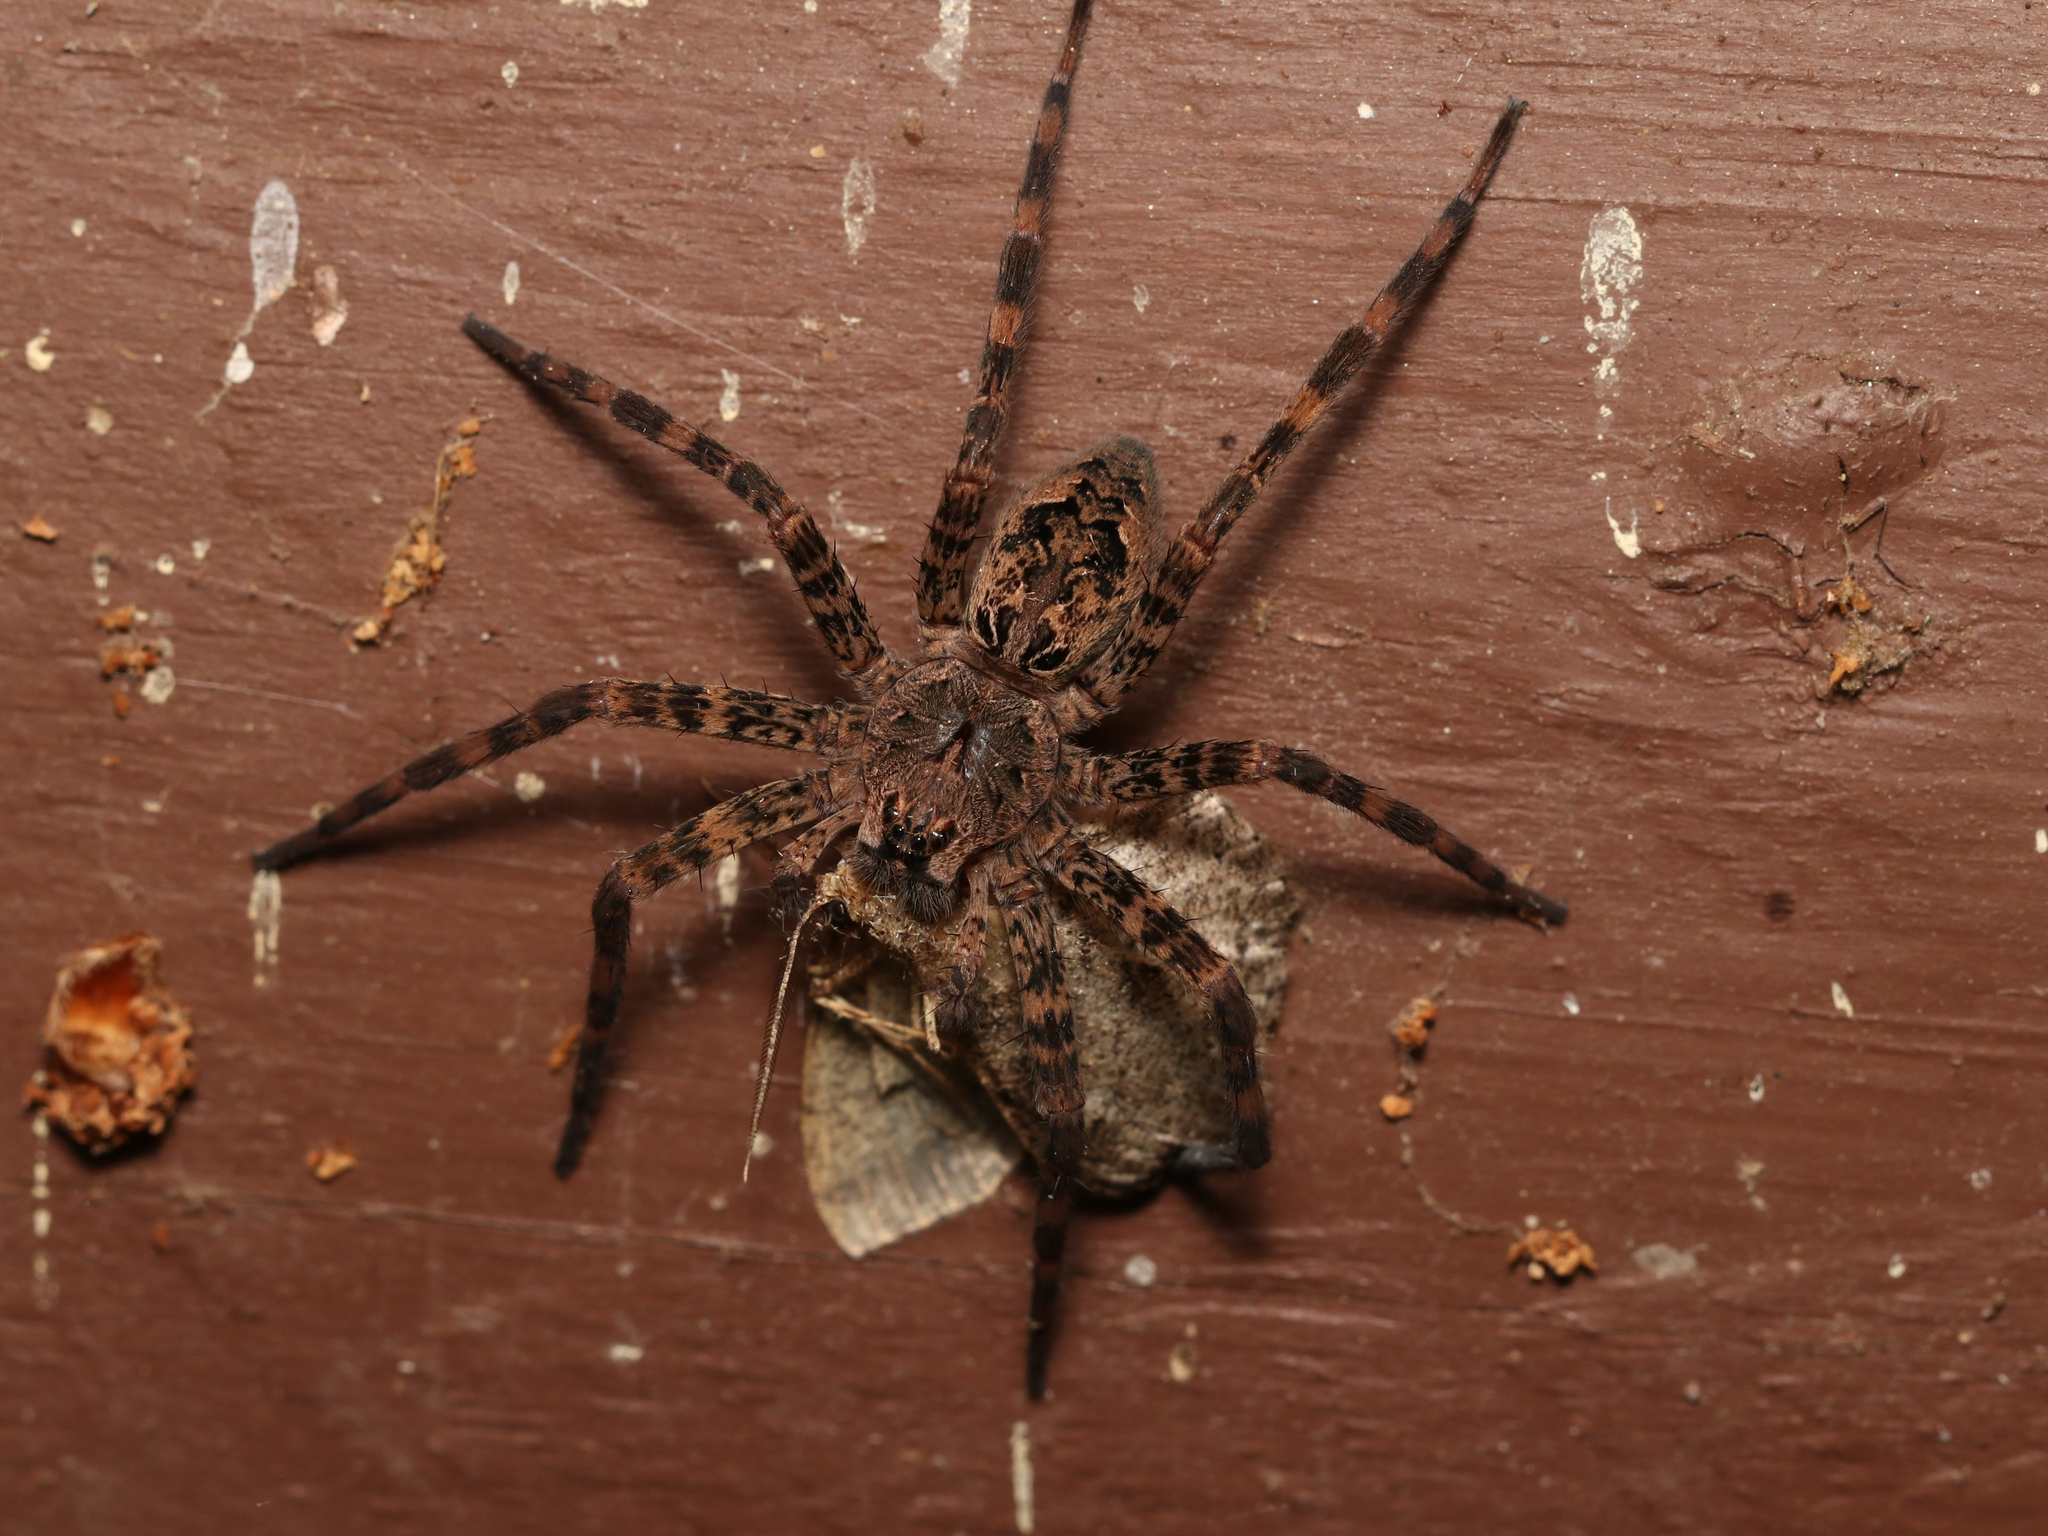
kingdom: Animalia
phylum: Arthropoda
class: Arachnida
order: Araneae
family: Pisauridae
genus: Dolomedes
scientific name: Dolomedes tenebrosus
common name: Dark fishing spider
